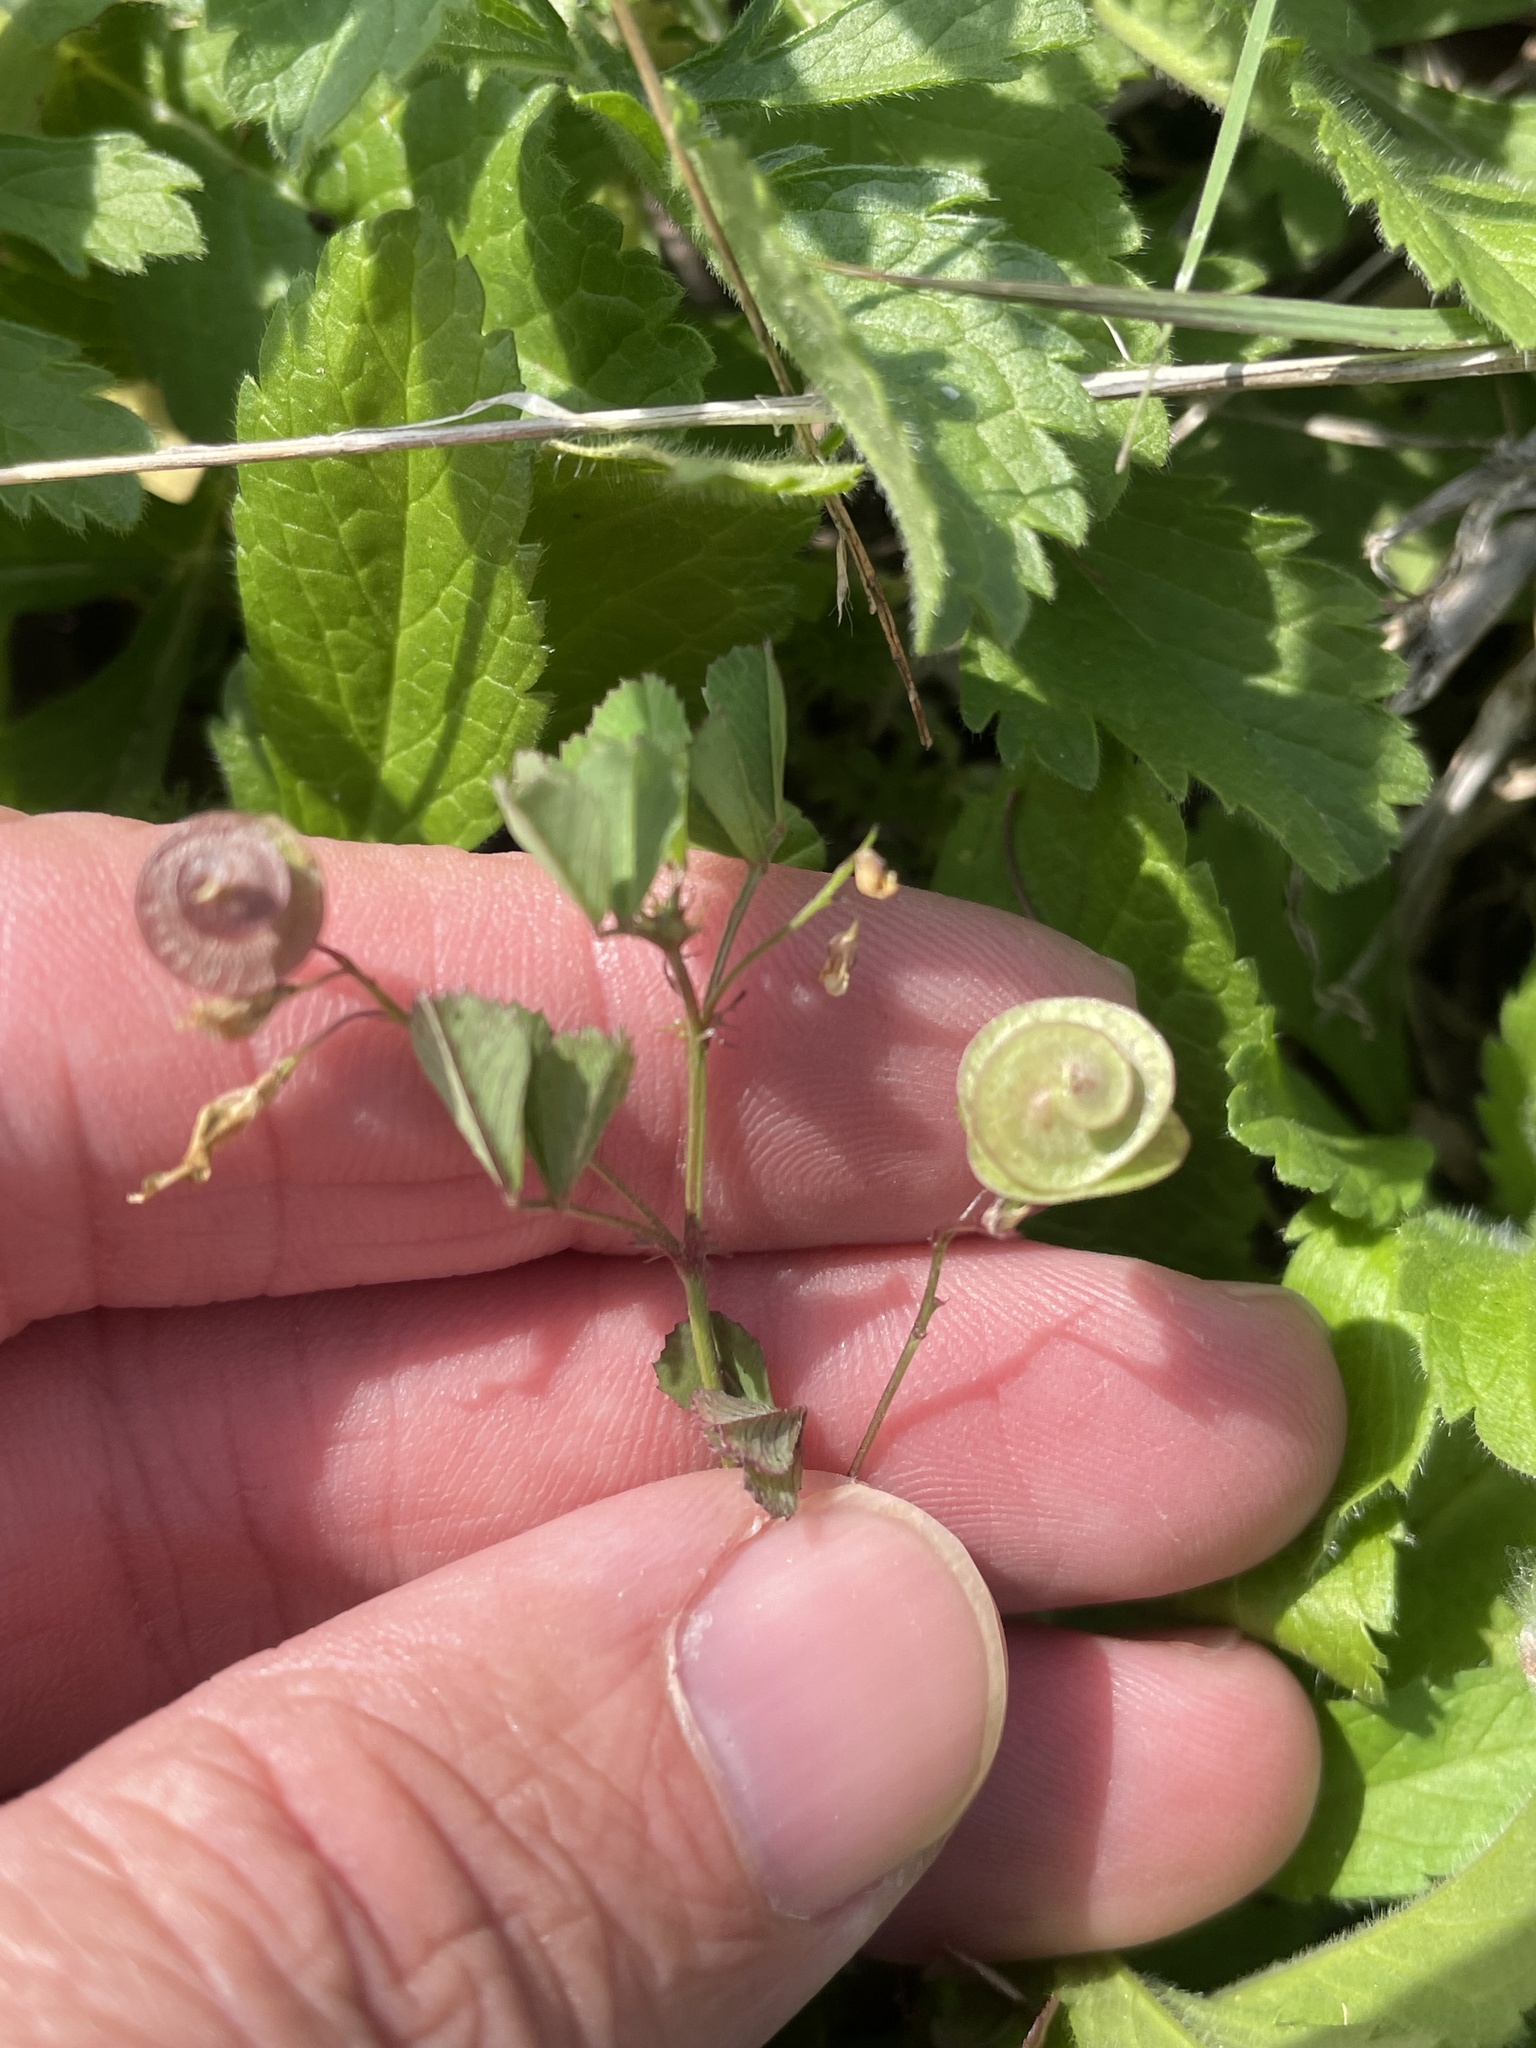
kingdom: Plantae
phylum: Tracheophyta
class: Magnoliopsida
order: Fabales
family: Fabaceae
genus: Medicago
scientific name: Medicago orbicularis
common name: Button medick
